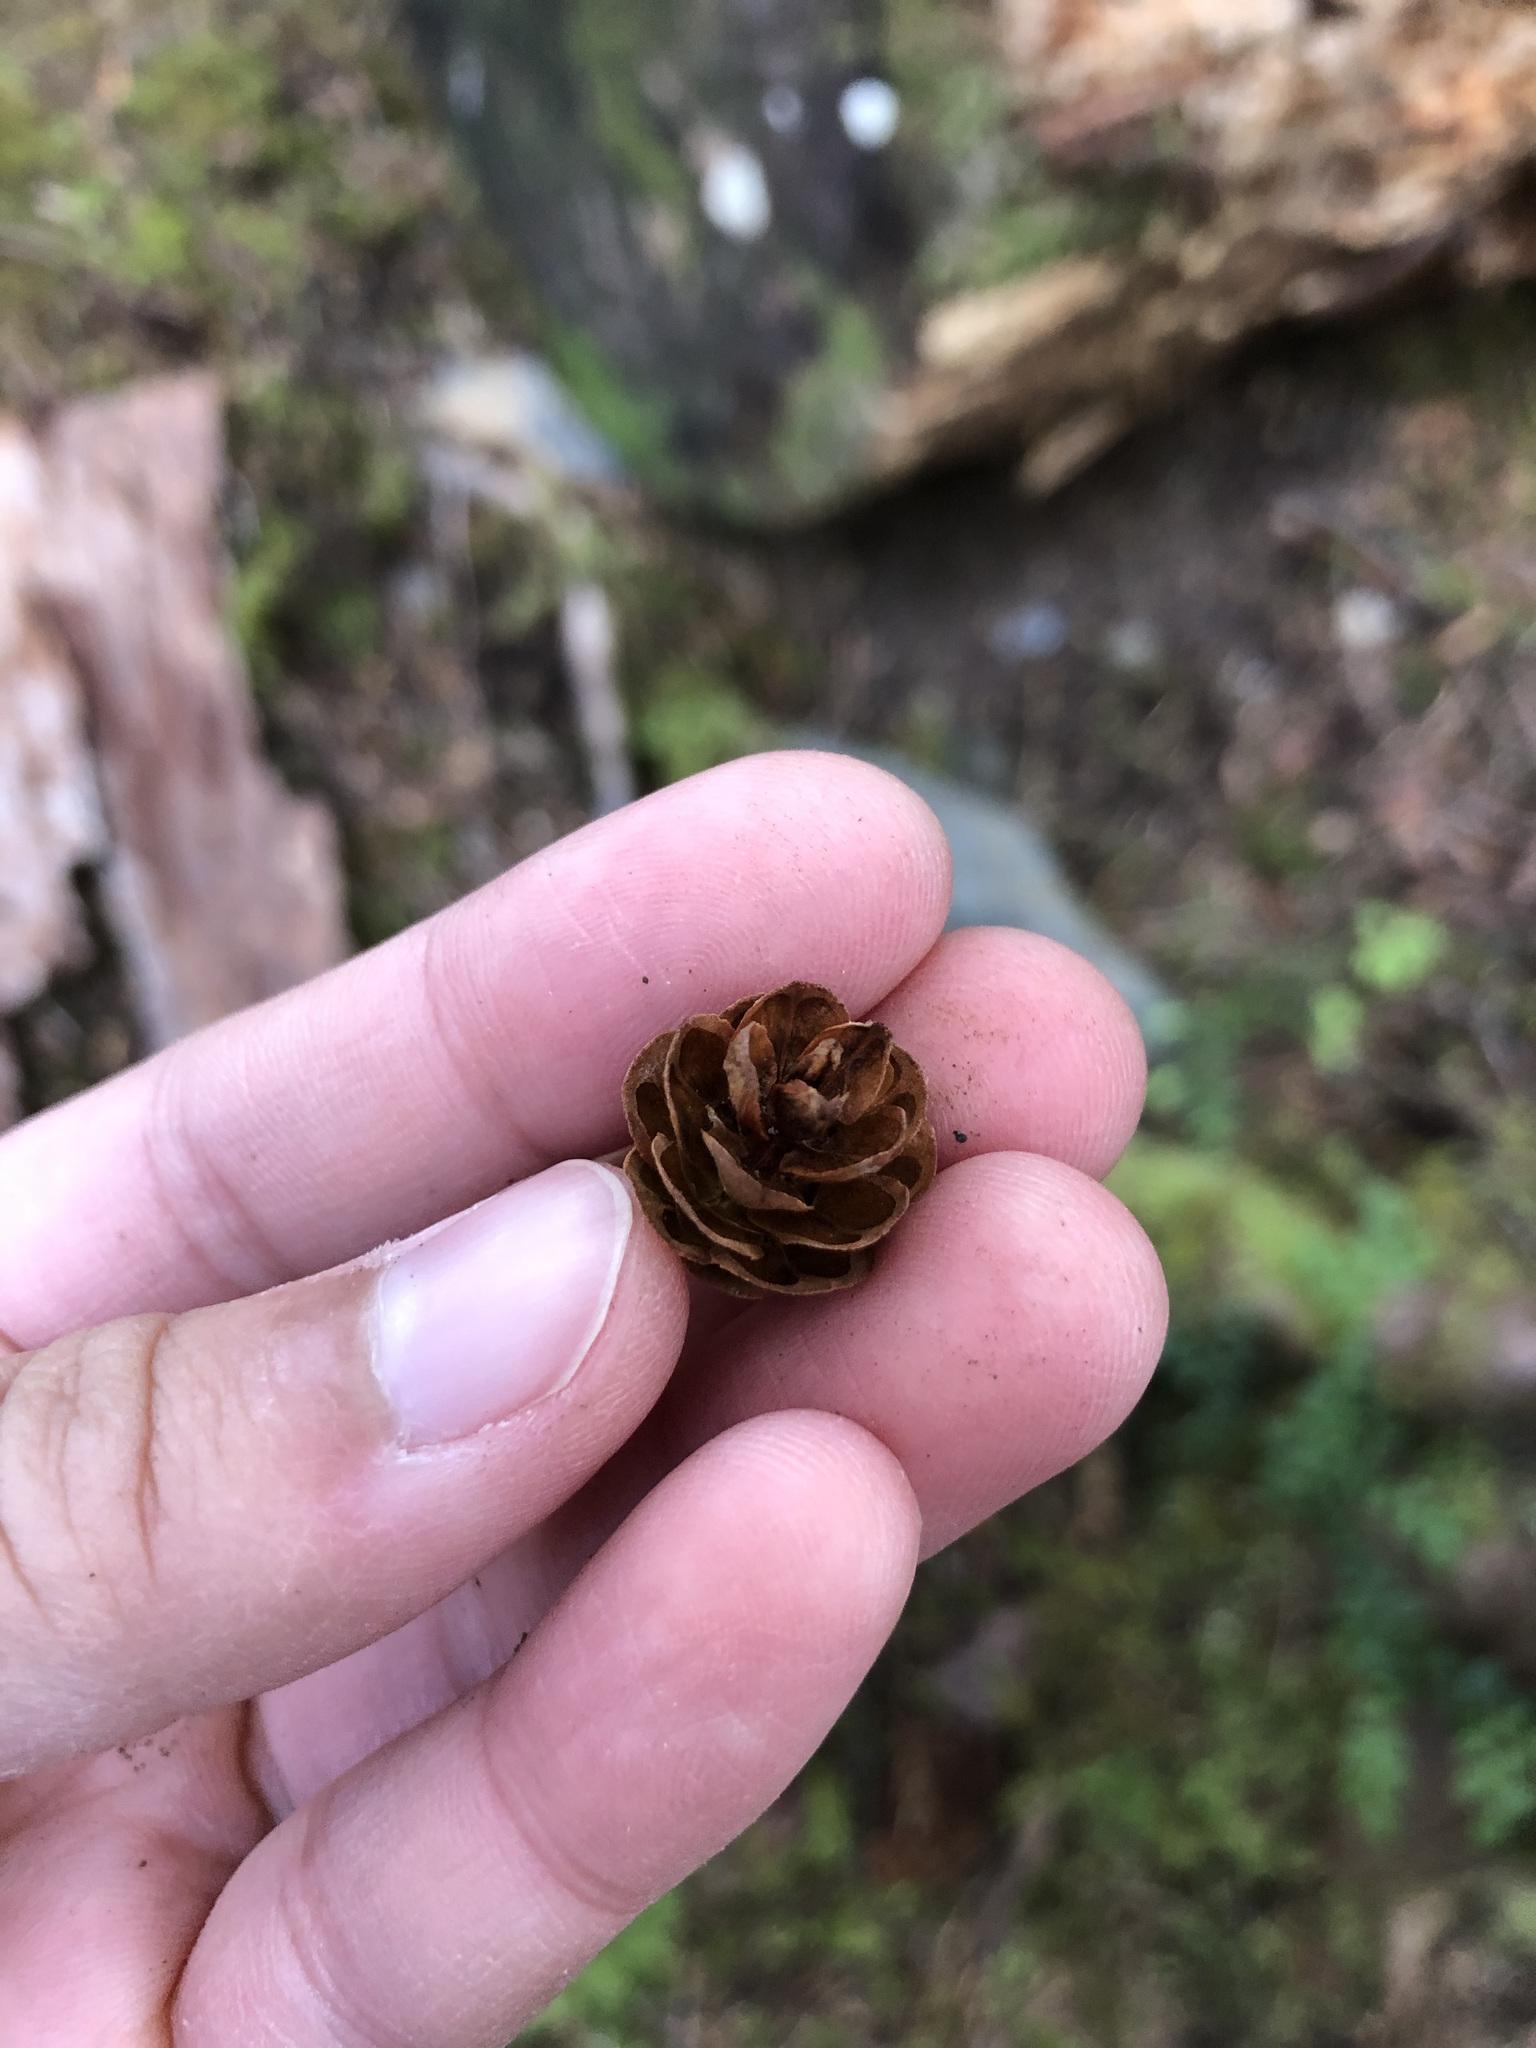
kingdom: Plantae
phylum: Tracheophyta
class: Pinopsida
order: Pinales
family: Pinaceae
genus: Tsuga
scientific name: Tsuga heterophylla
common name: Western hemlock
